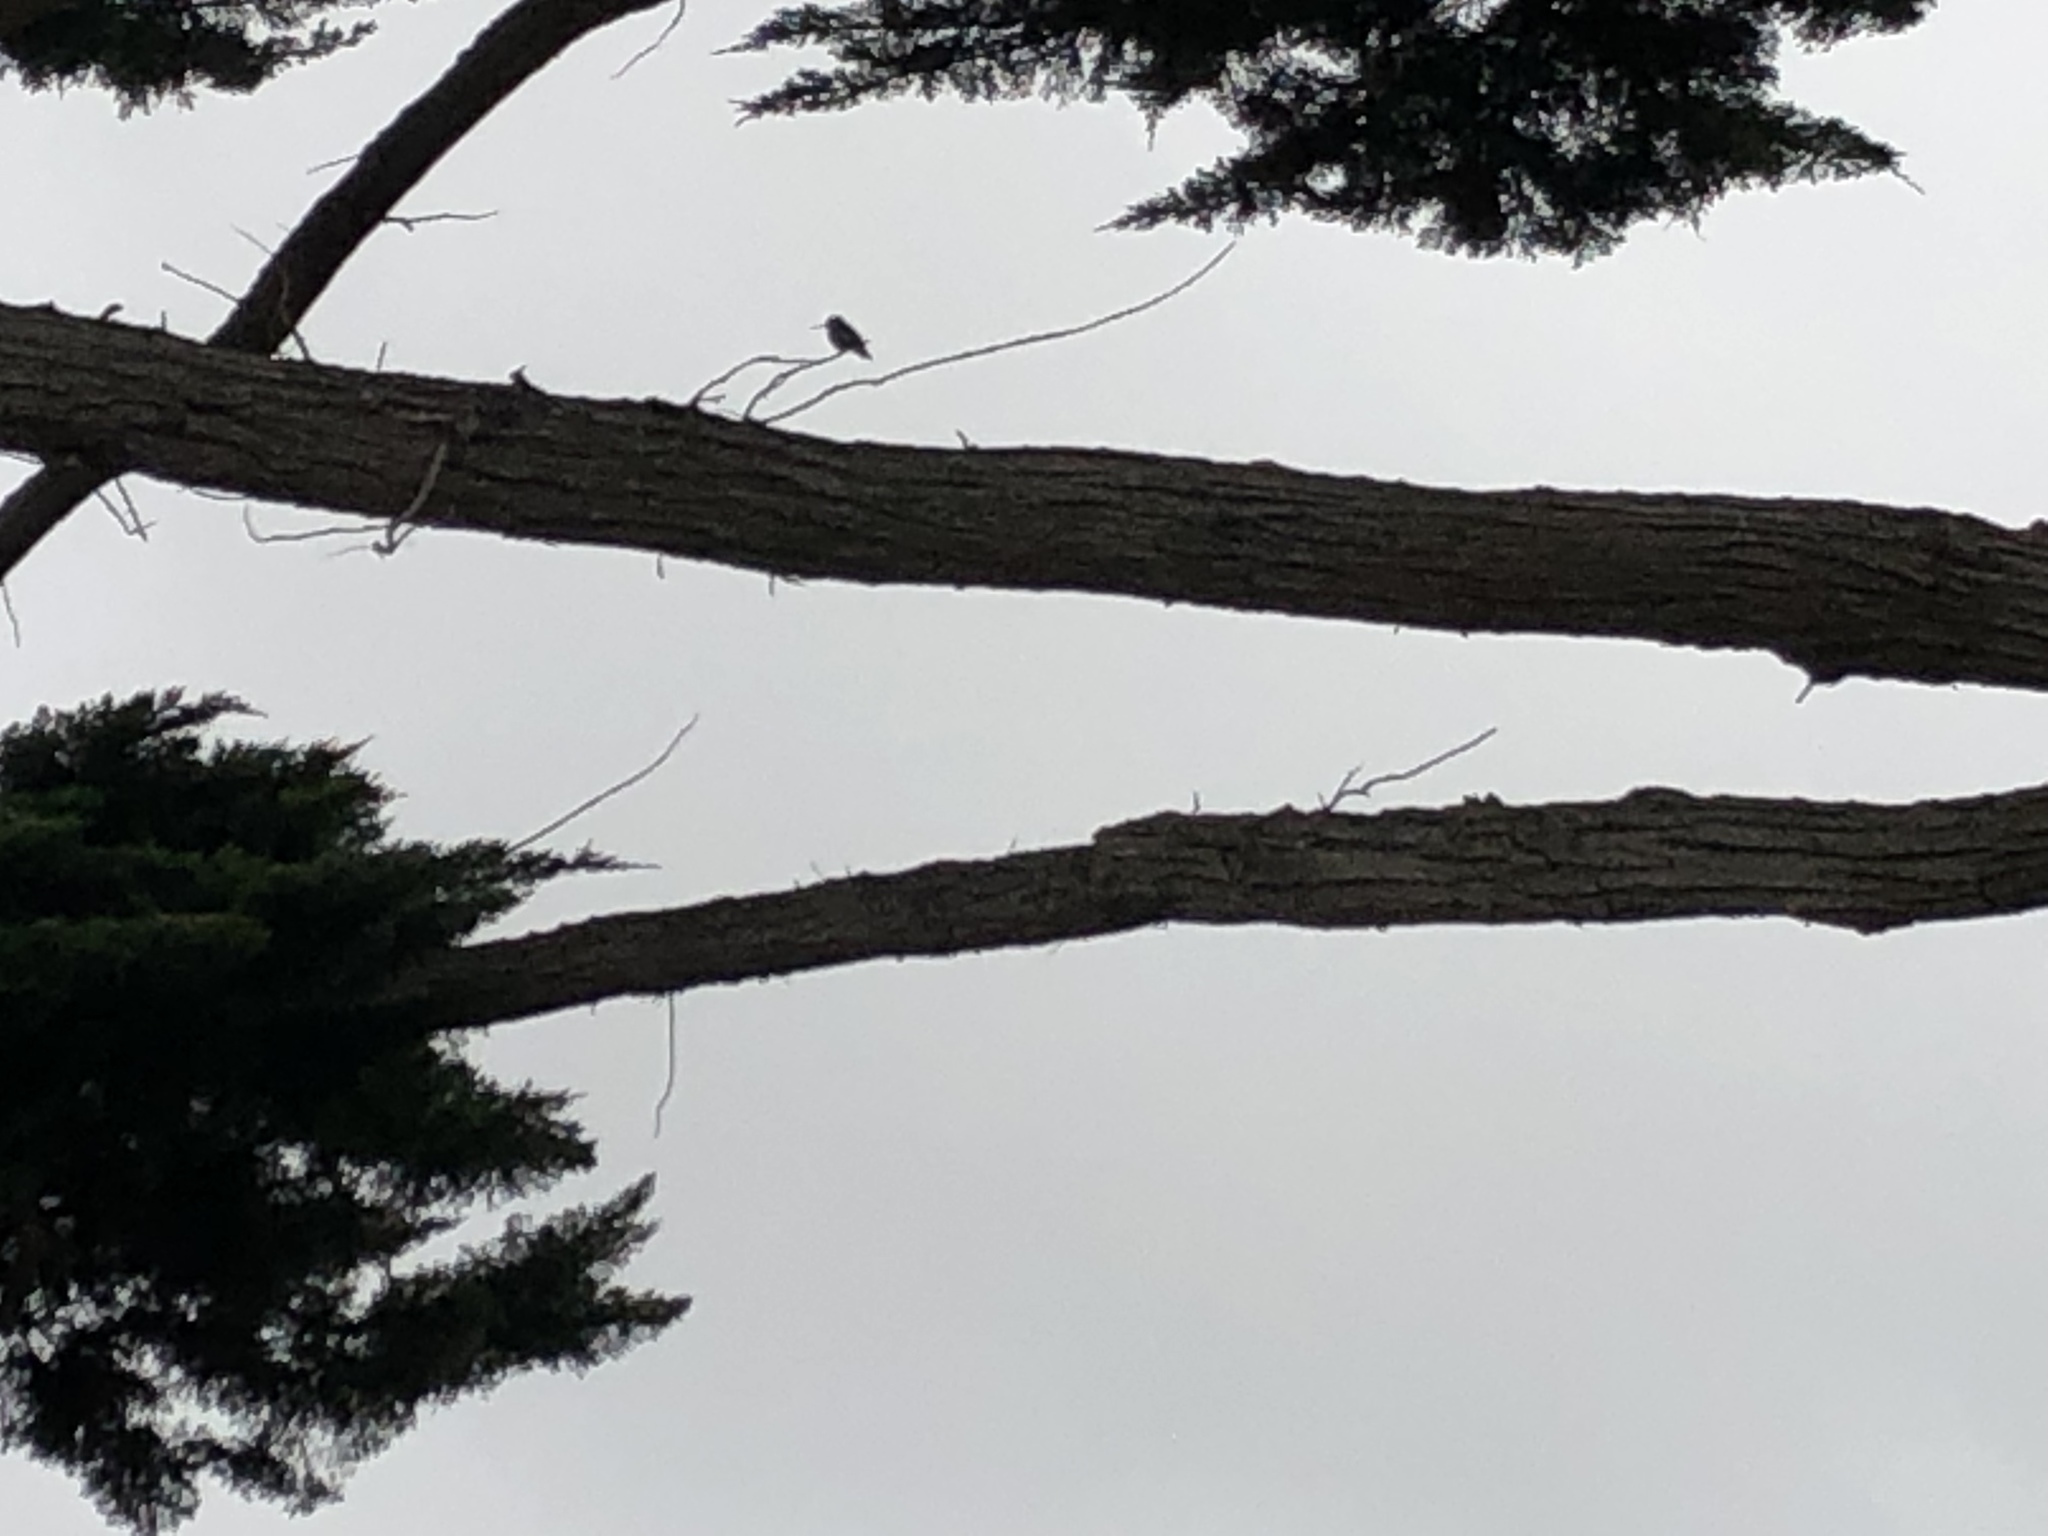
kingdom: Animalia
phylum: Chordata
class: Aves
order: Apodiformes
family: Trochilidae
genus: Calypte
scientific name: Calypte anna
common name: Anna's hummingbird
